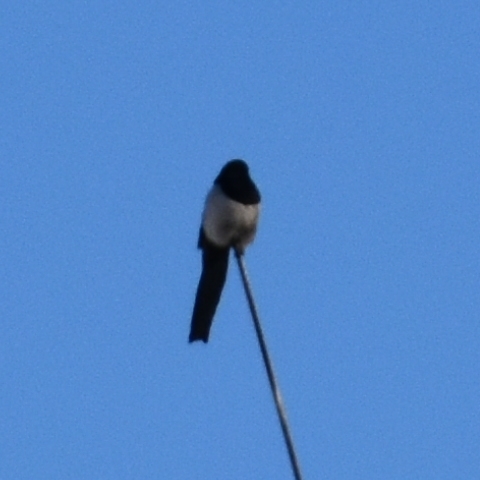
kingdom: Animalia
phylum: Chordata
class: Aves
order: Passeriformes
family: Corvidae
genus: Pica
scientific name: Pica pica
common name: Eurasian magpie
